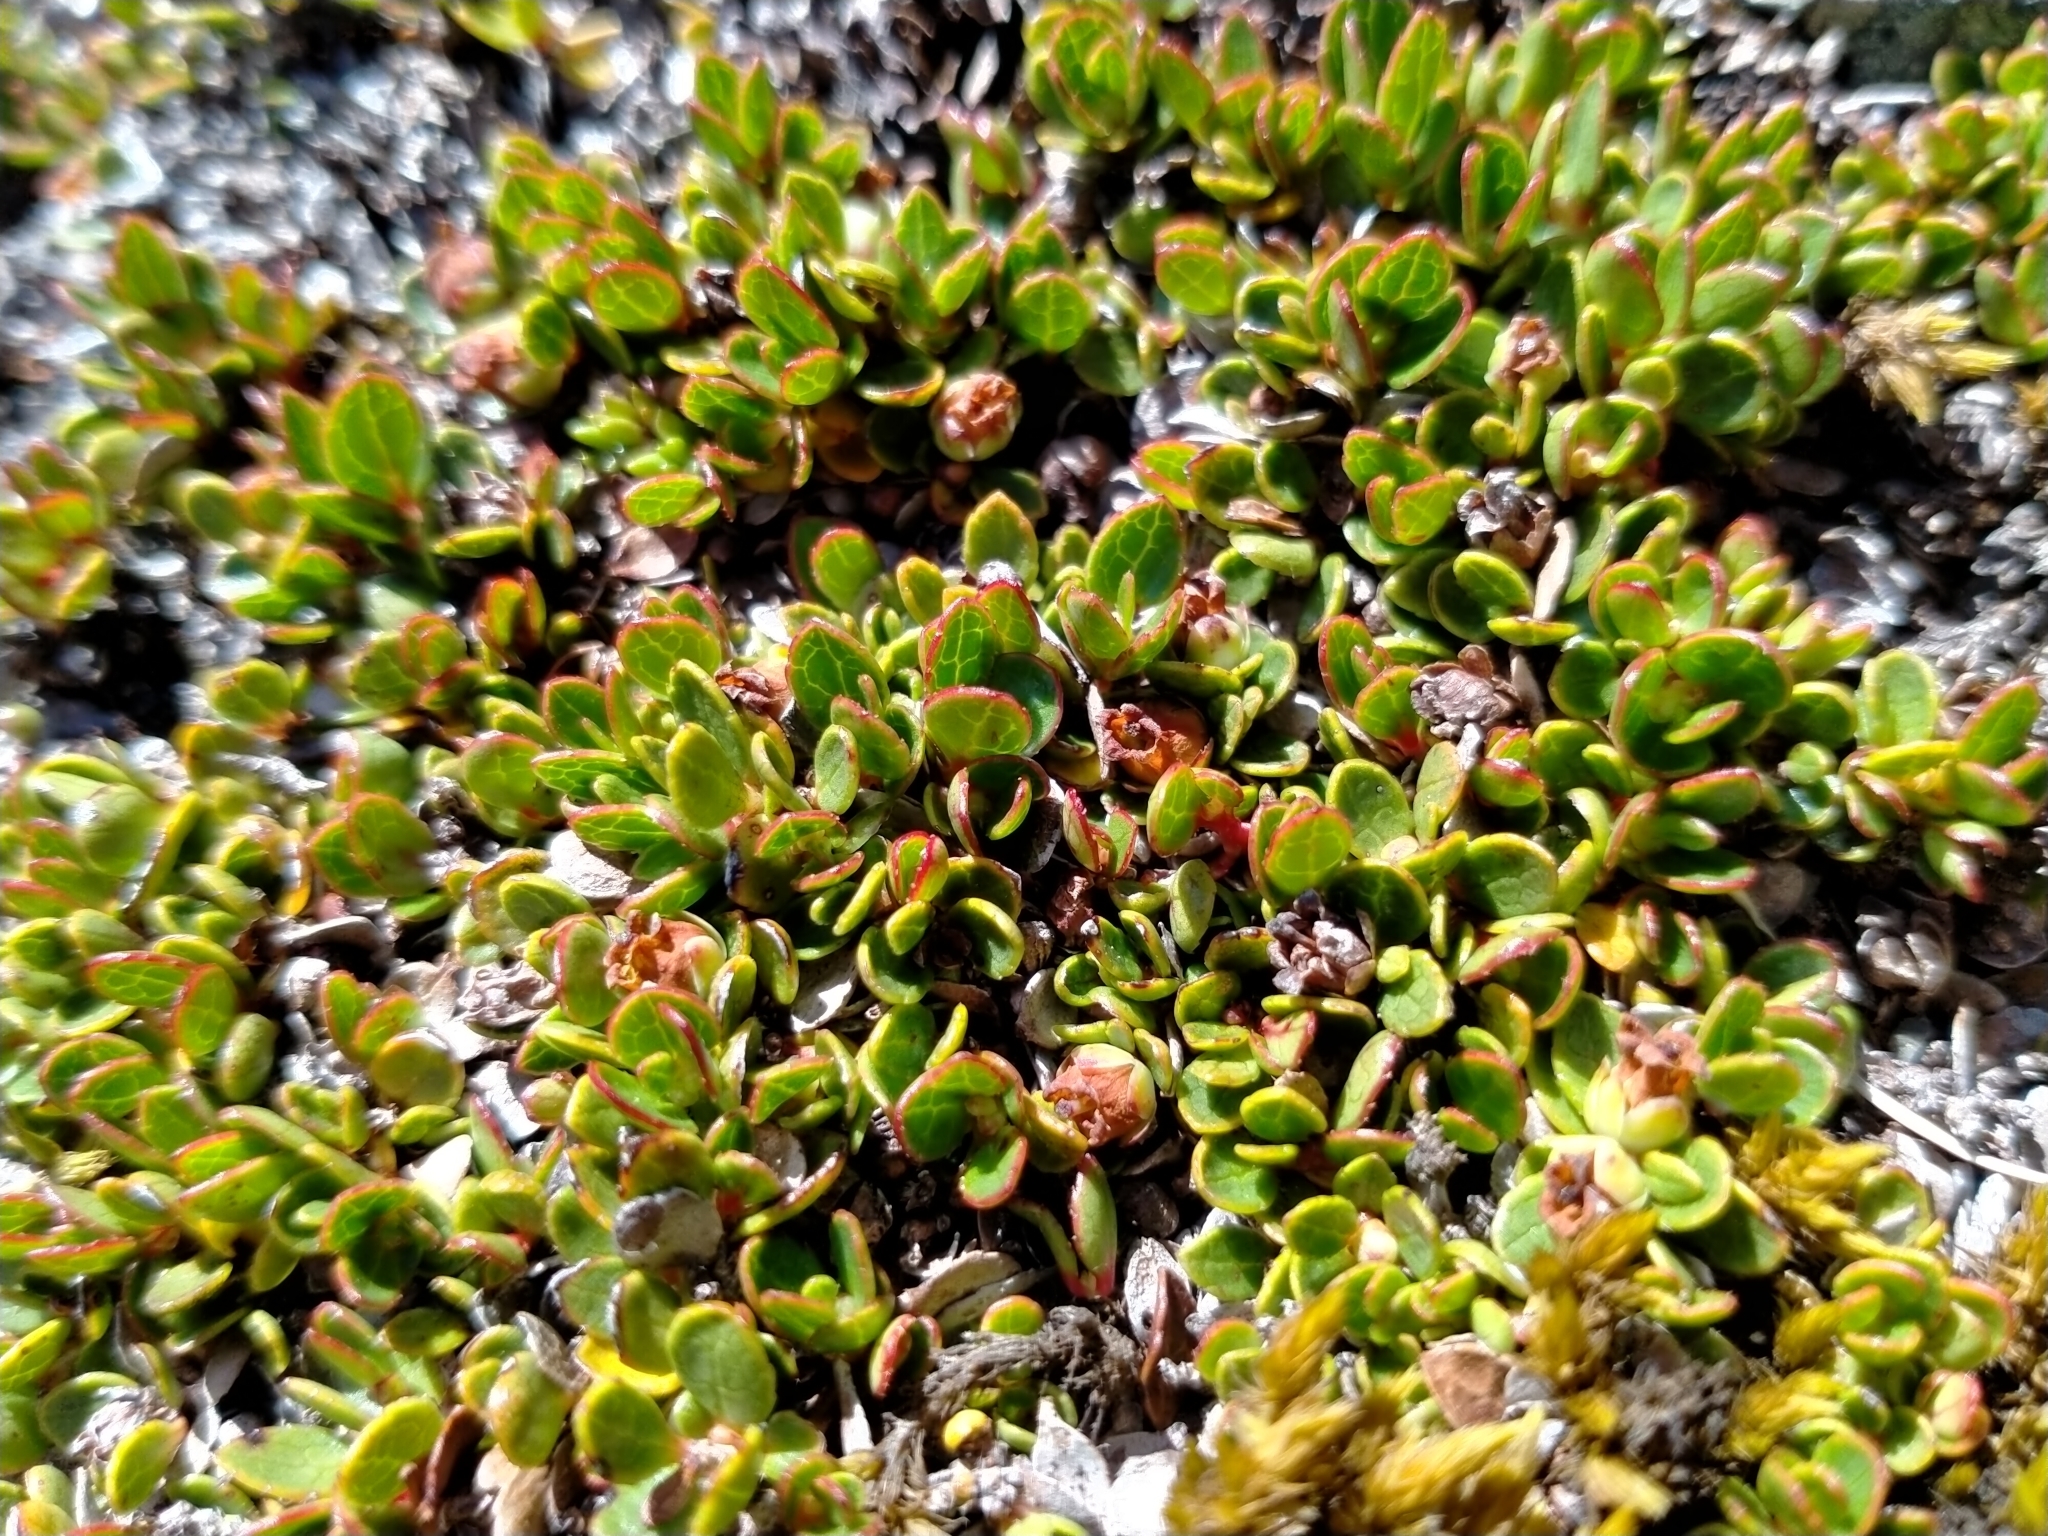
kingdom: Plantae
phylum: Tracheophyta
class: Magnoliopsida
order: Ericales
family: Ericaceae
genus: Gaultheria
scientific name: Gaultheria nubicola
